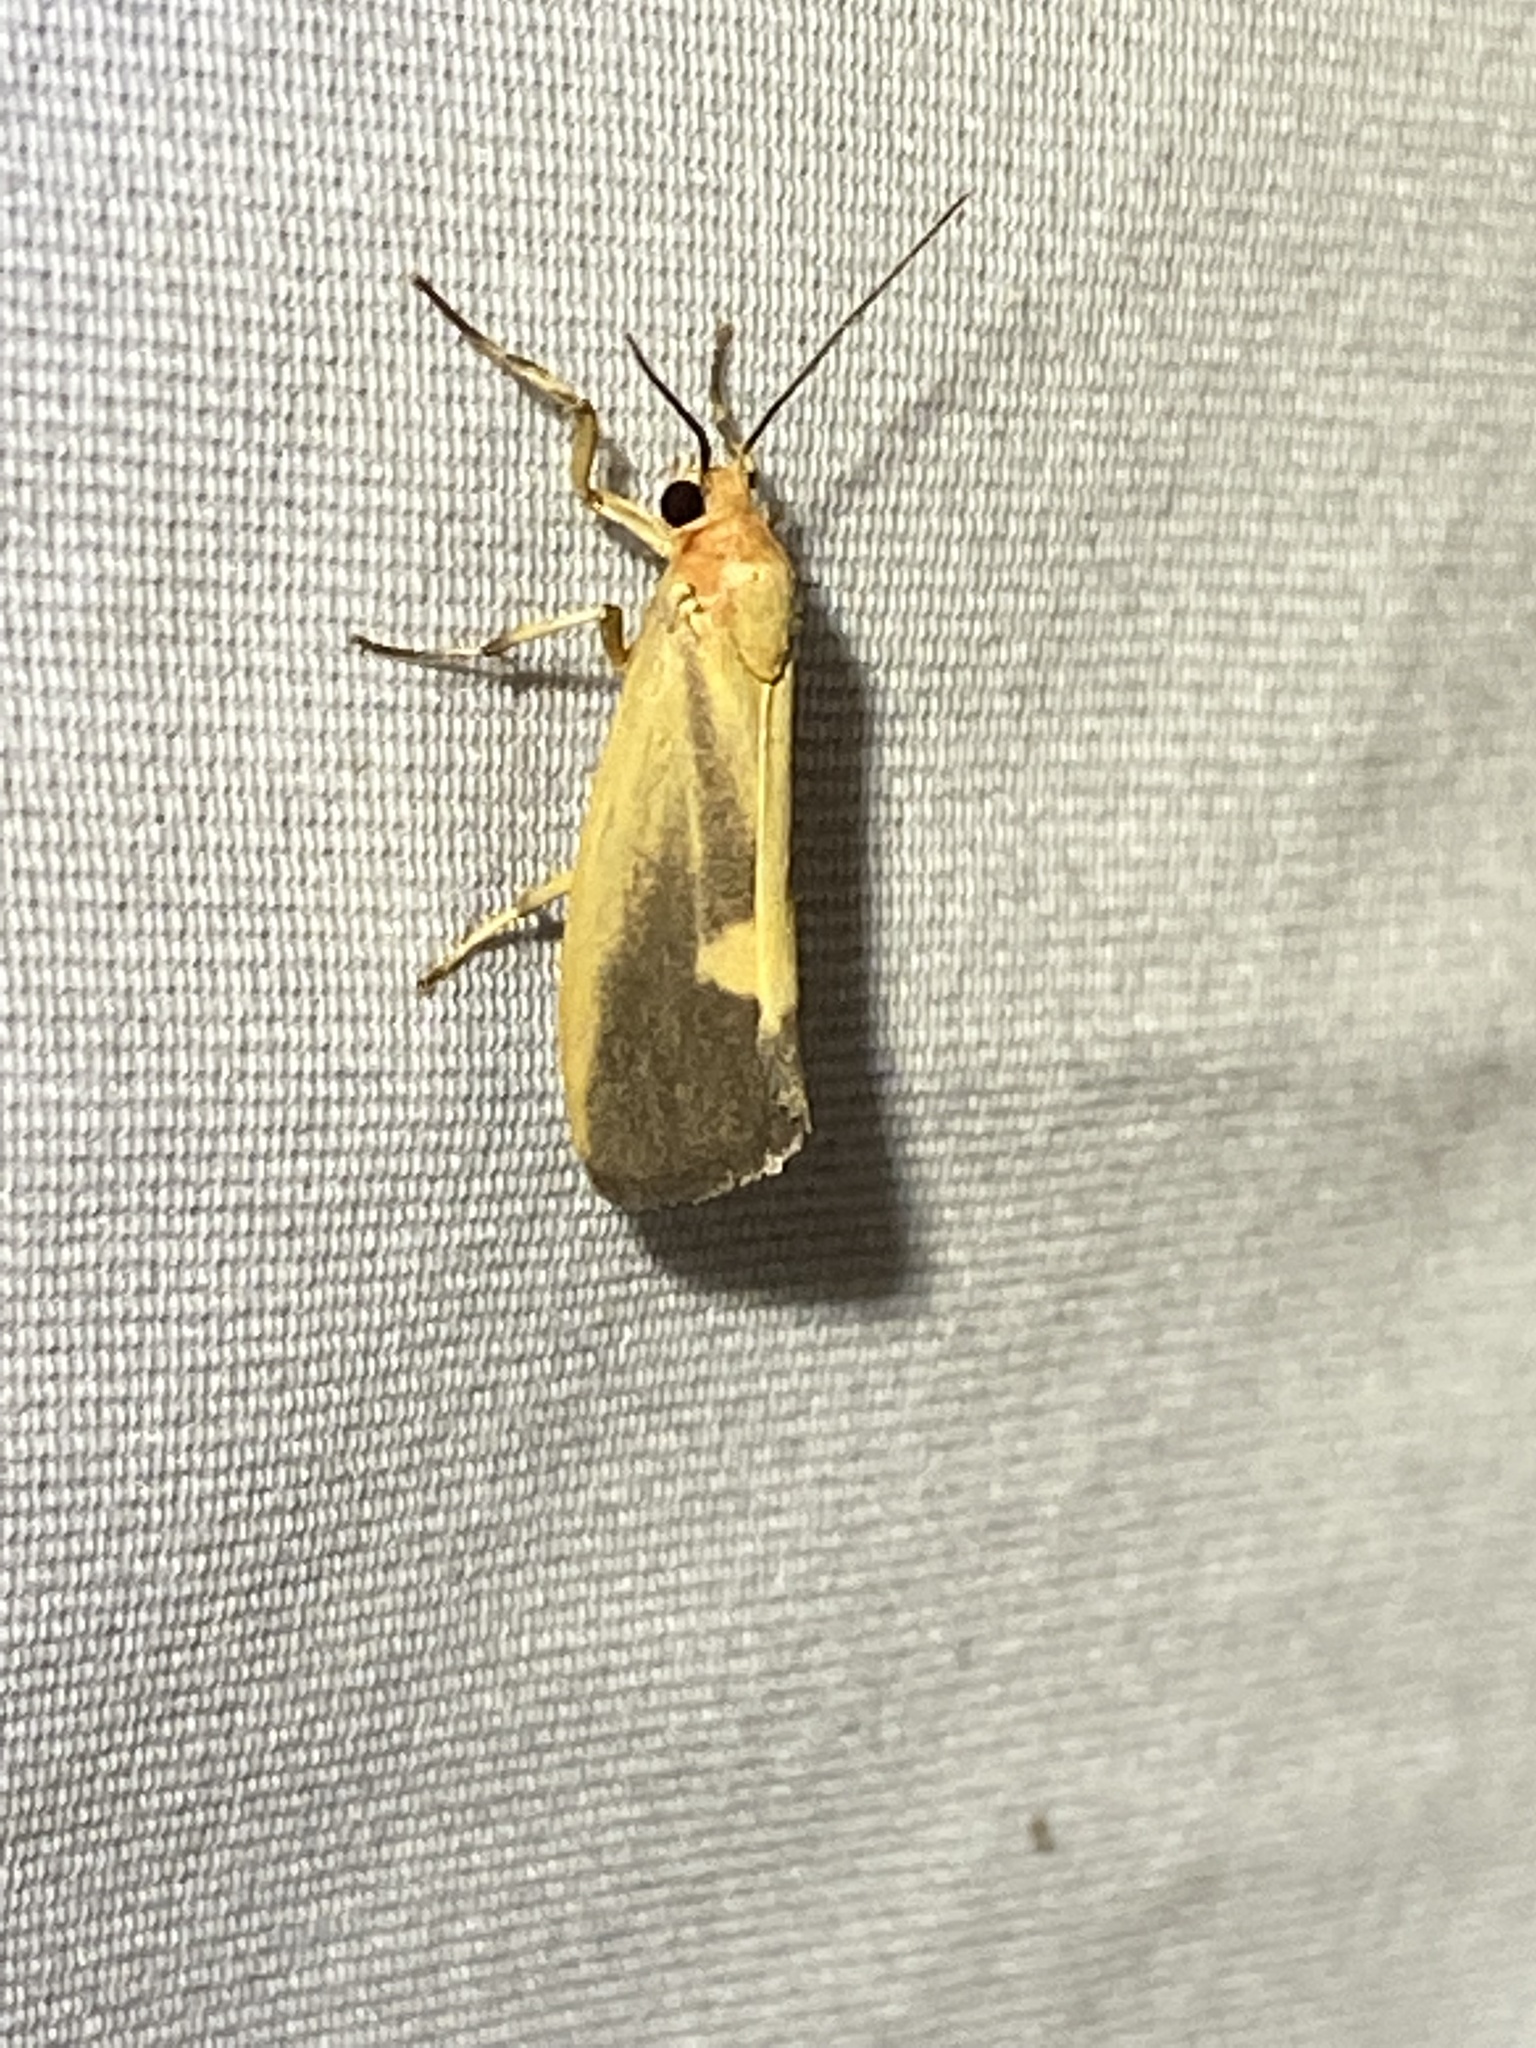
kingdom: Animalia
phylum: Arthropoda
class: Insecta
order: Lepidoptera
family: Erebidae
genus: Cisthene
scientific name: Cisthene plumbea
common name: Lead colored lichen moth
